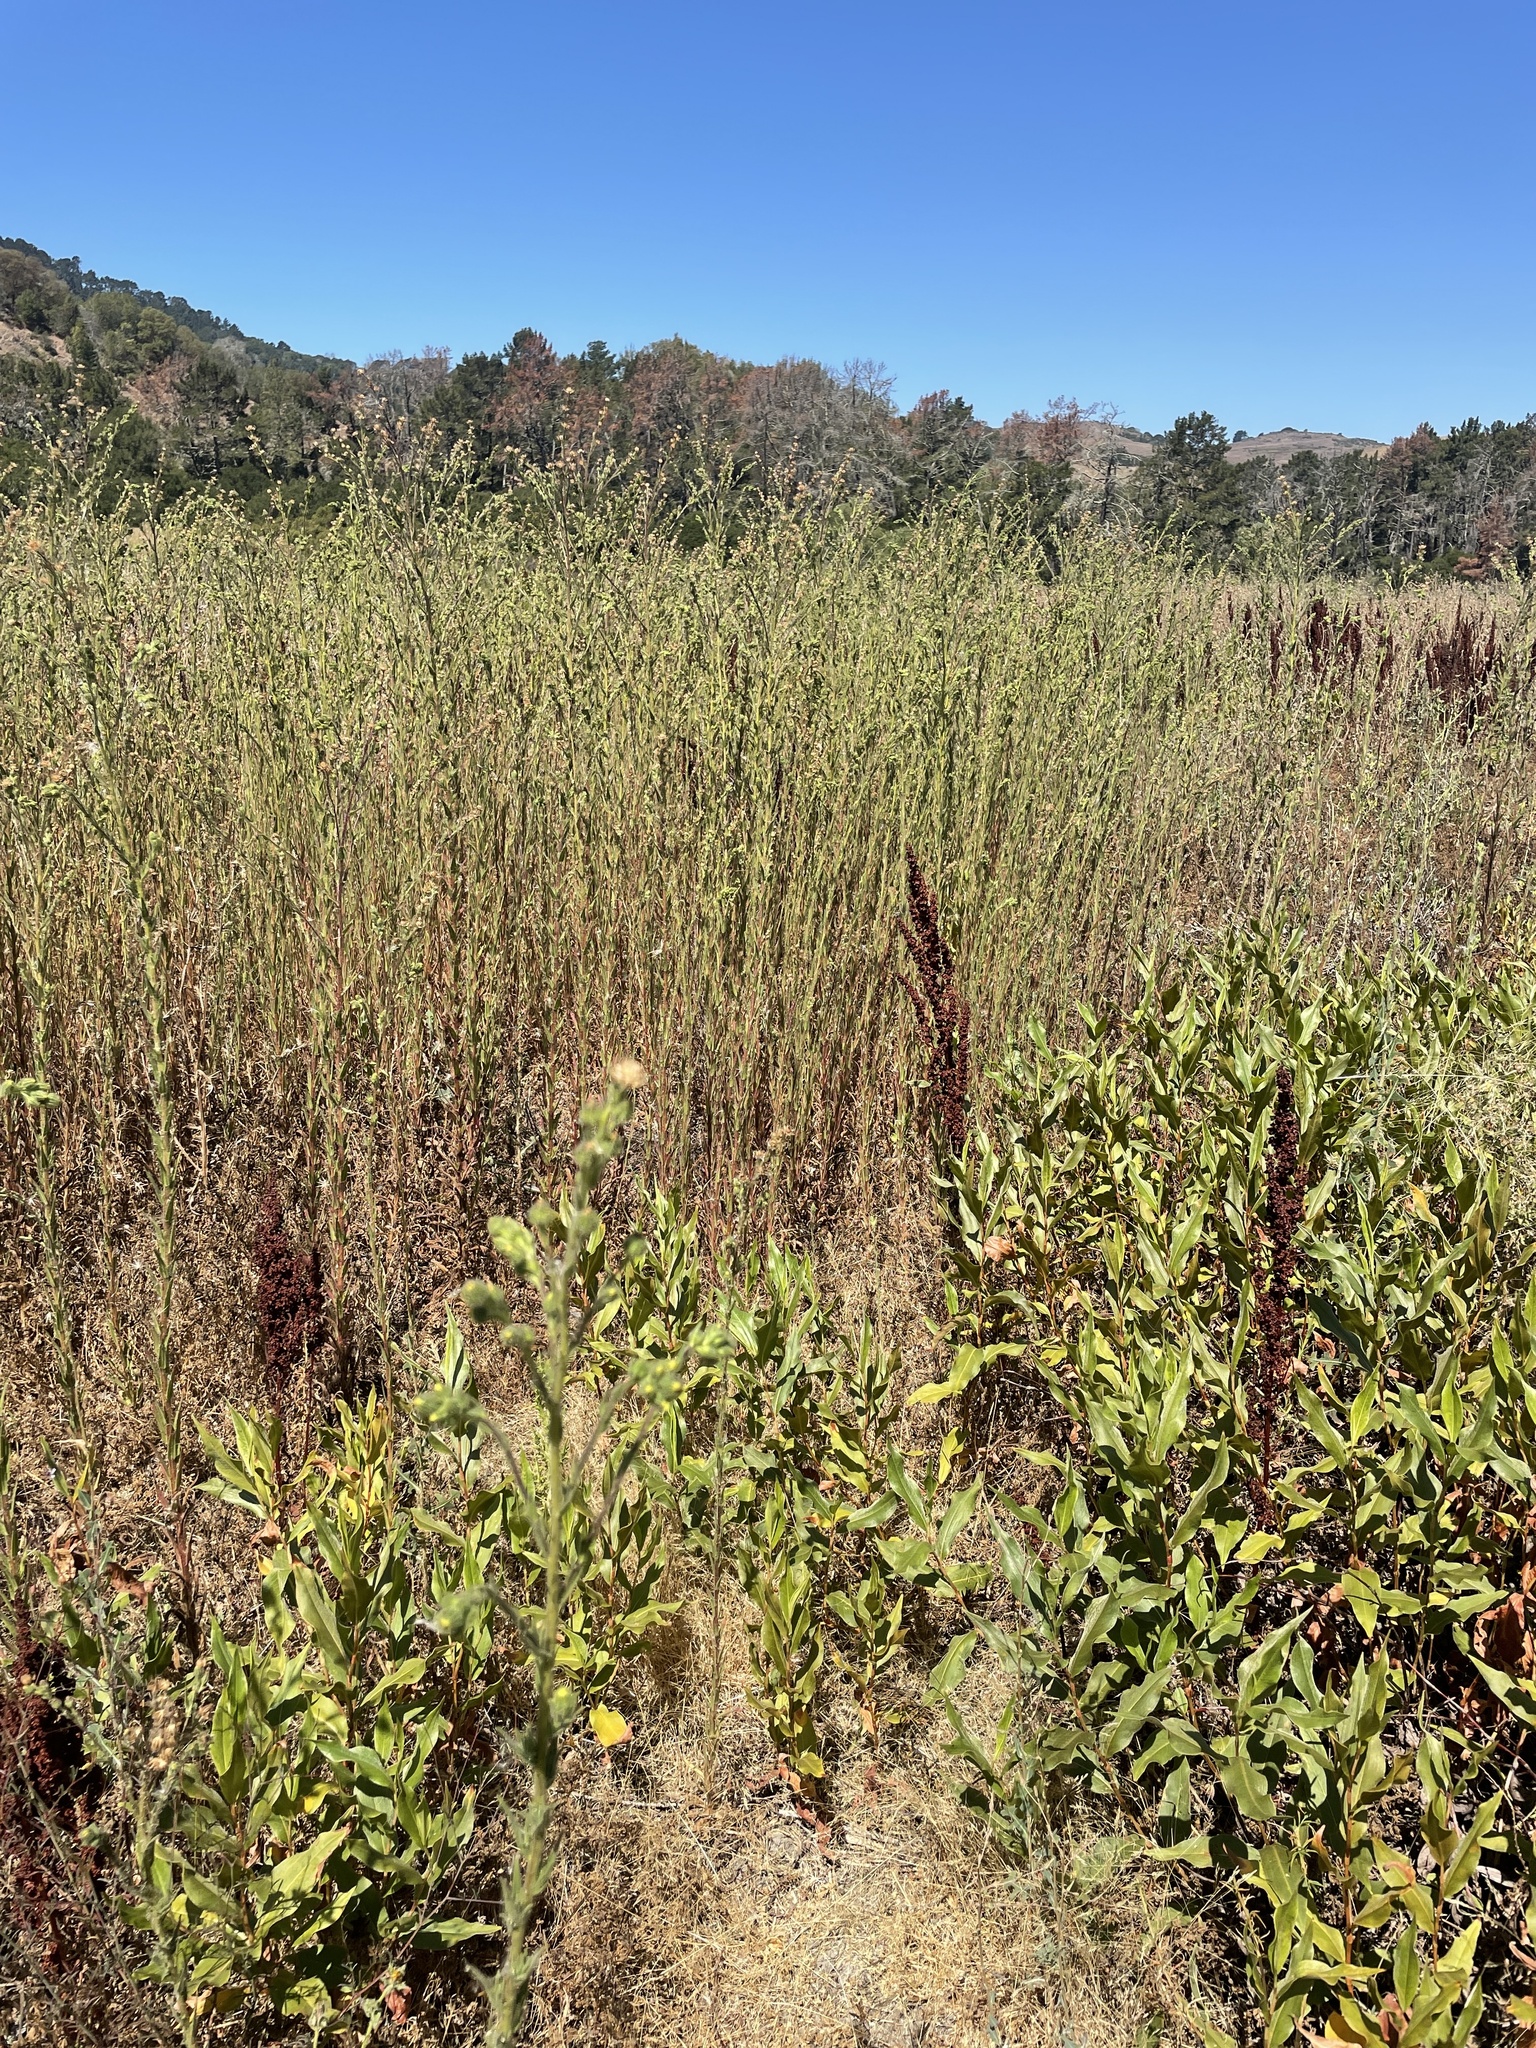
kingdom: Plantae
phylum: Tracheophyta
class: Magnoliopsida
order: Asterales
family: Asteraceae
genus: Madia
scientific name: Madia sativa
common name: Coast tarweed
